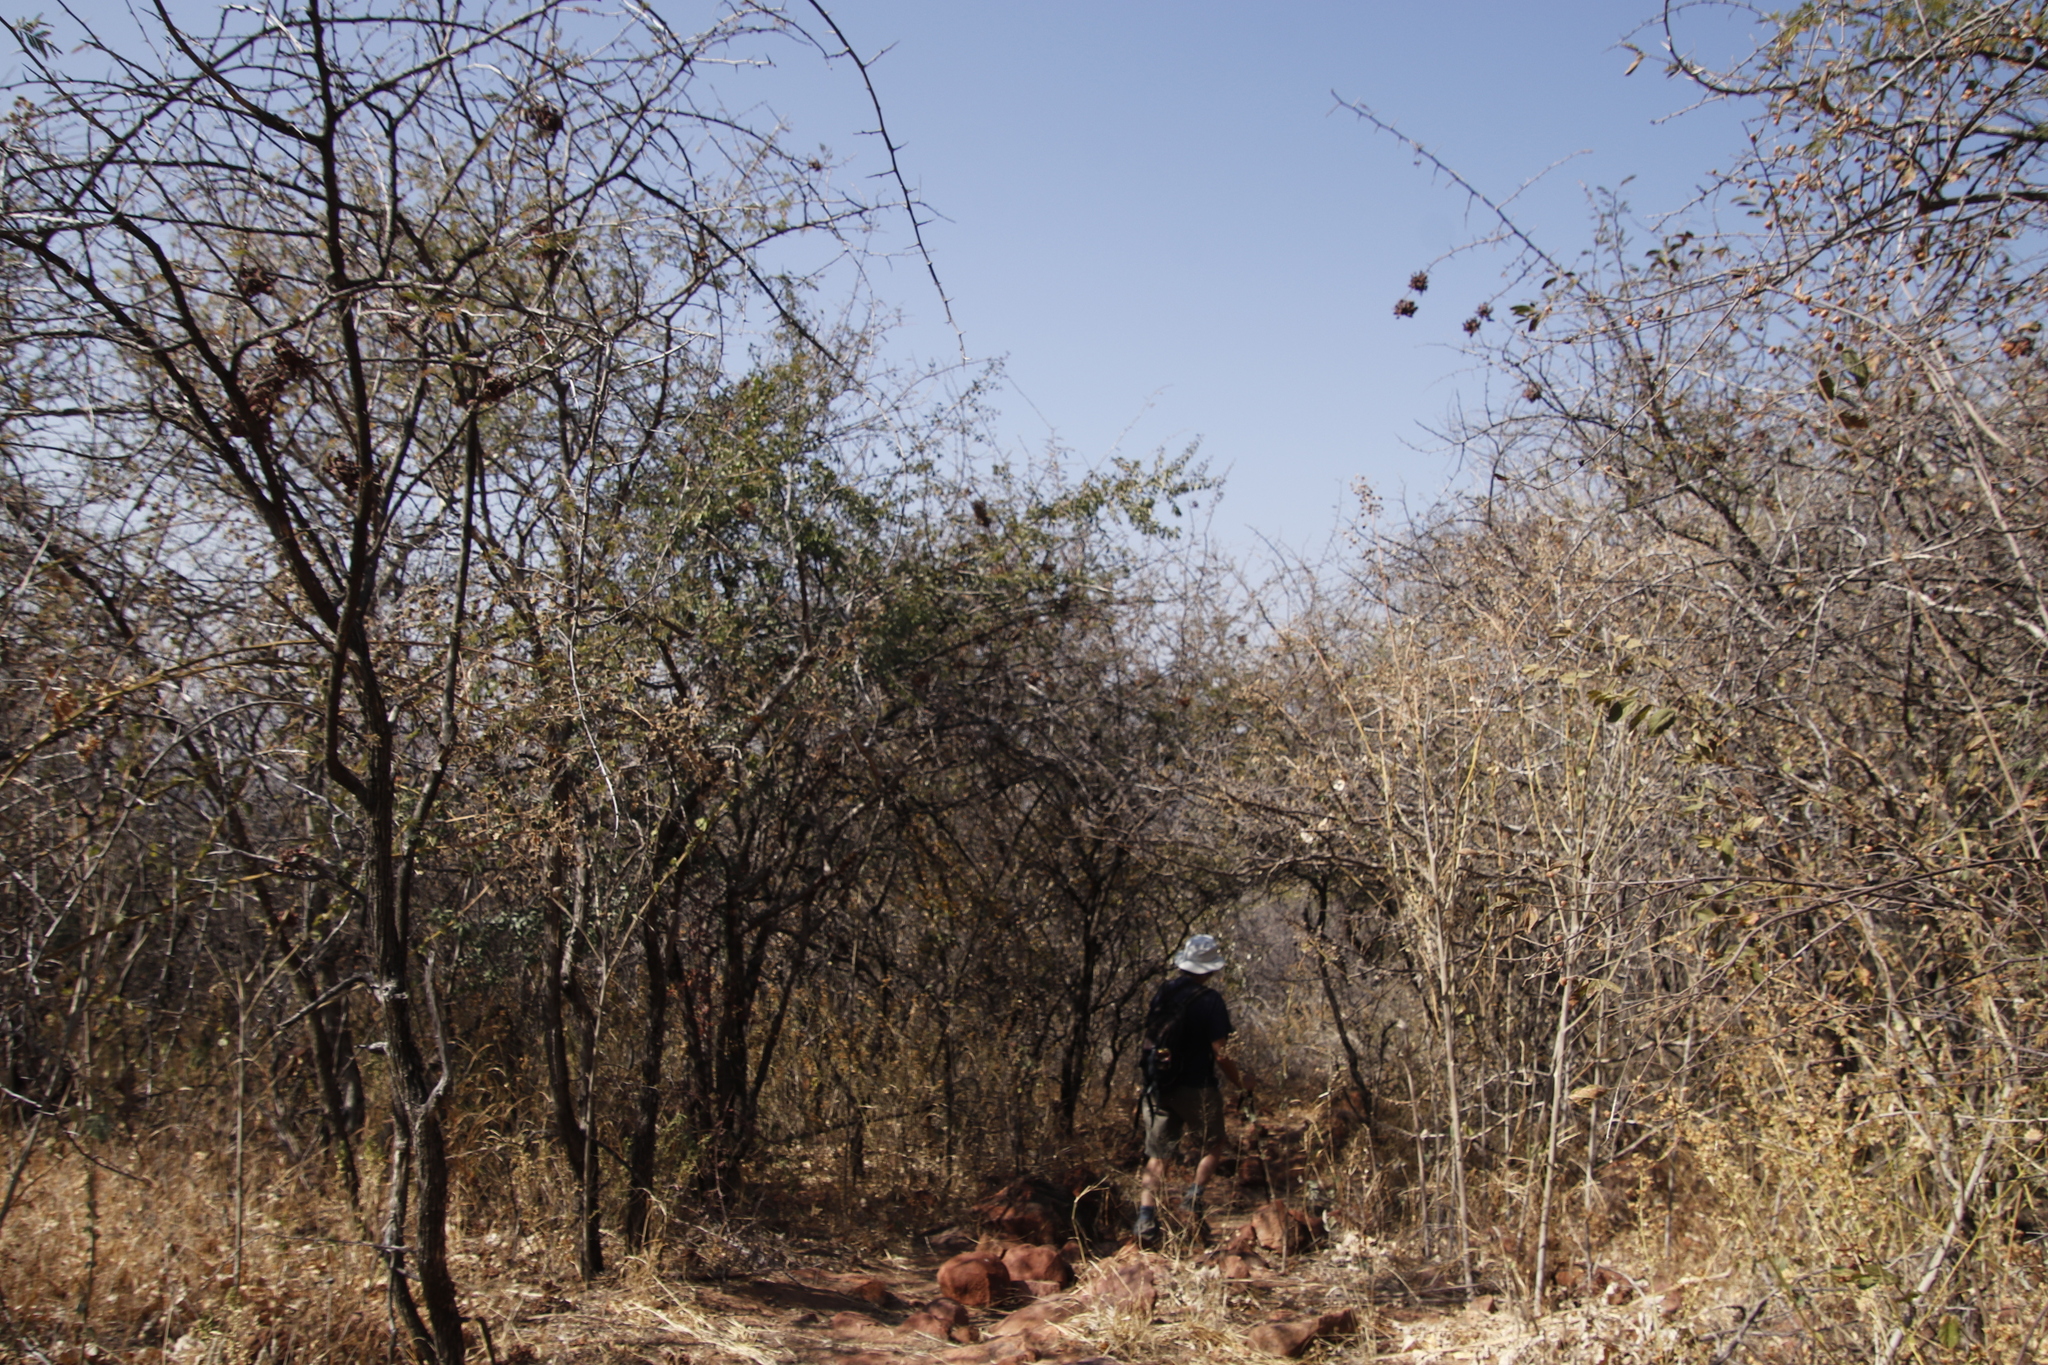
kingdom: Plantae
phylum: Tracheophyta
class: Magnoliopsida
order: Santalales
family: Ximeniaceae
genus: Ximenia
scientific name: Ximenia americana
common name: Tallowwood
